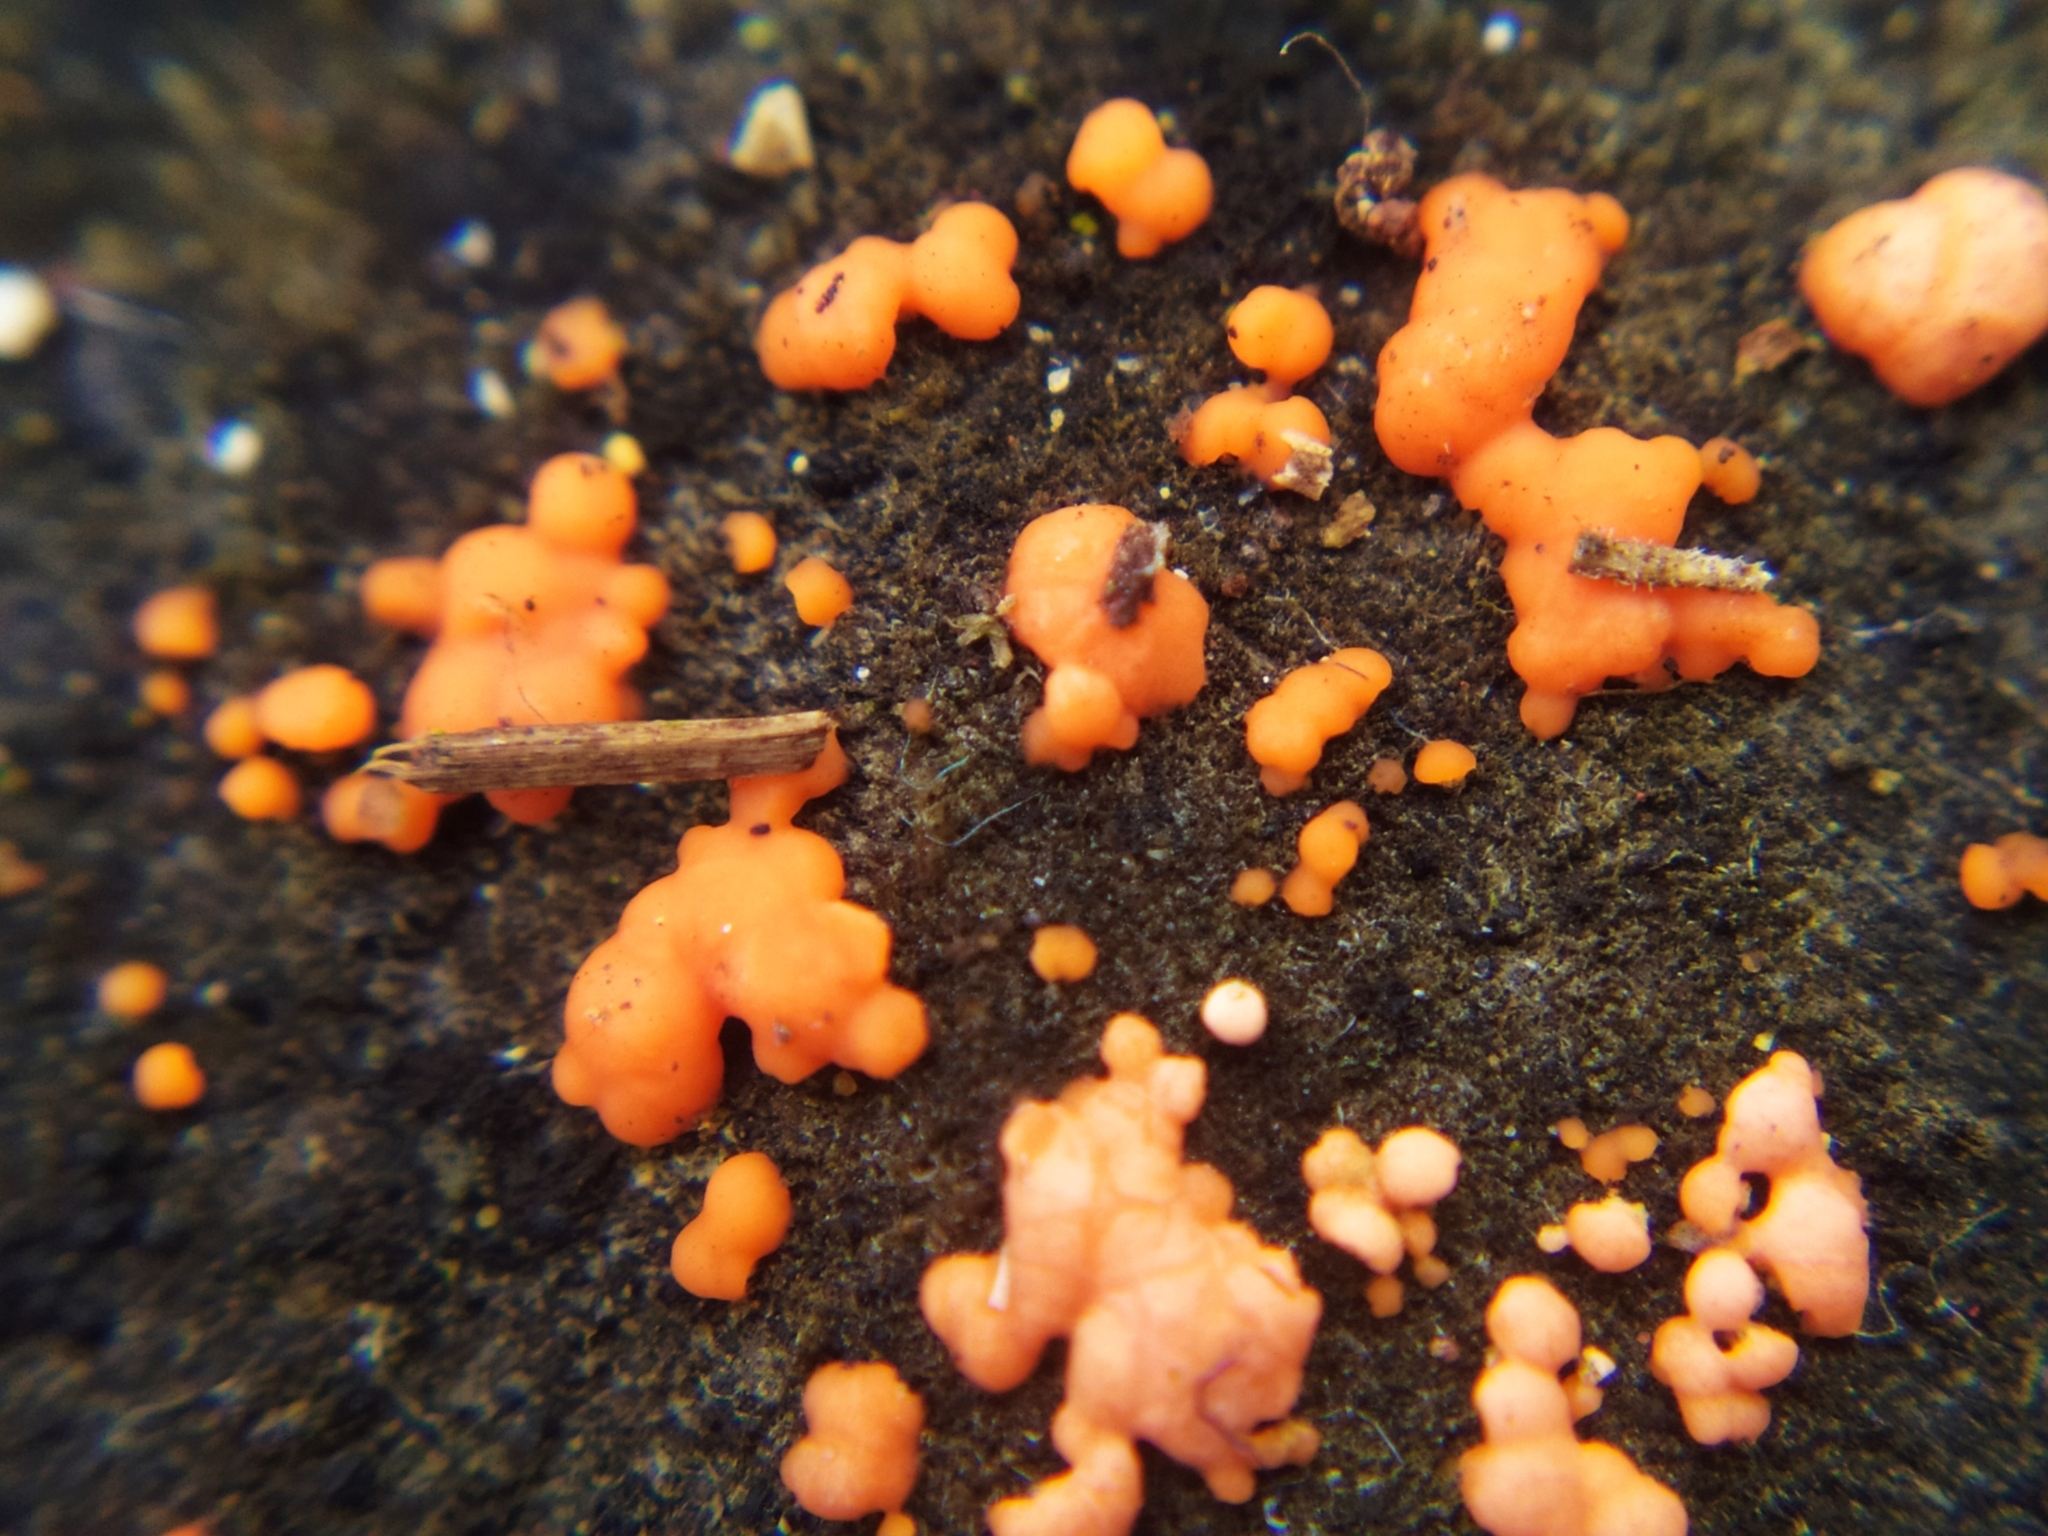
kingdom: Fungi
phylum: Basidiomycota
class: Dacrymycetes
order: Dacrymycetales
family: Dacrymycetaceae
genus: Dacrymyces
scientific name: Dacrymyces stillatus
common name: Common jelly spot
